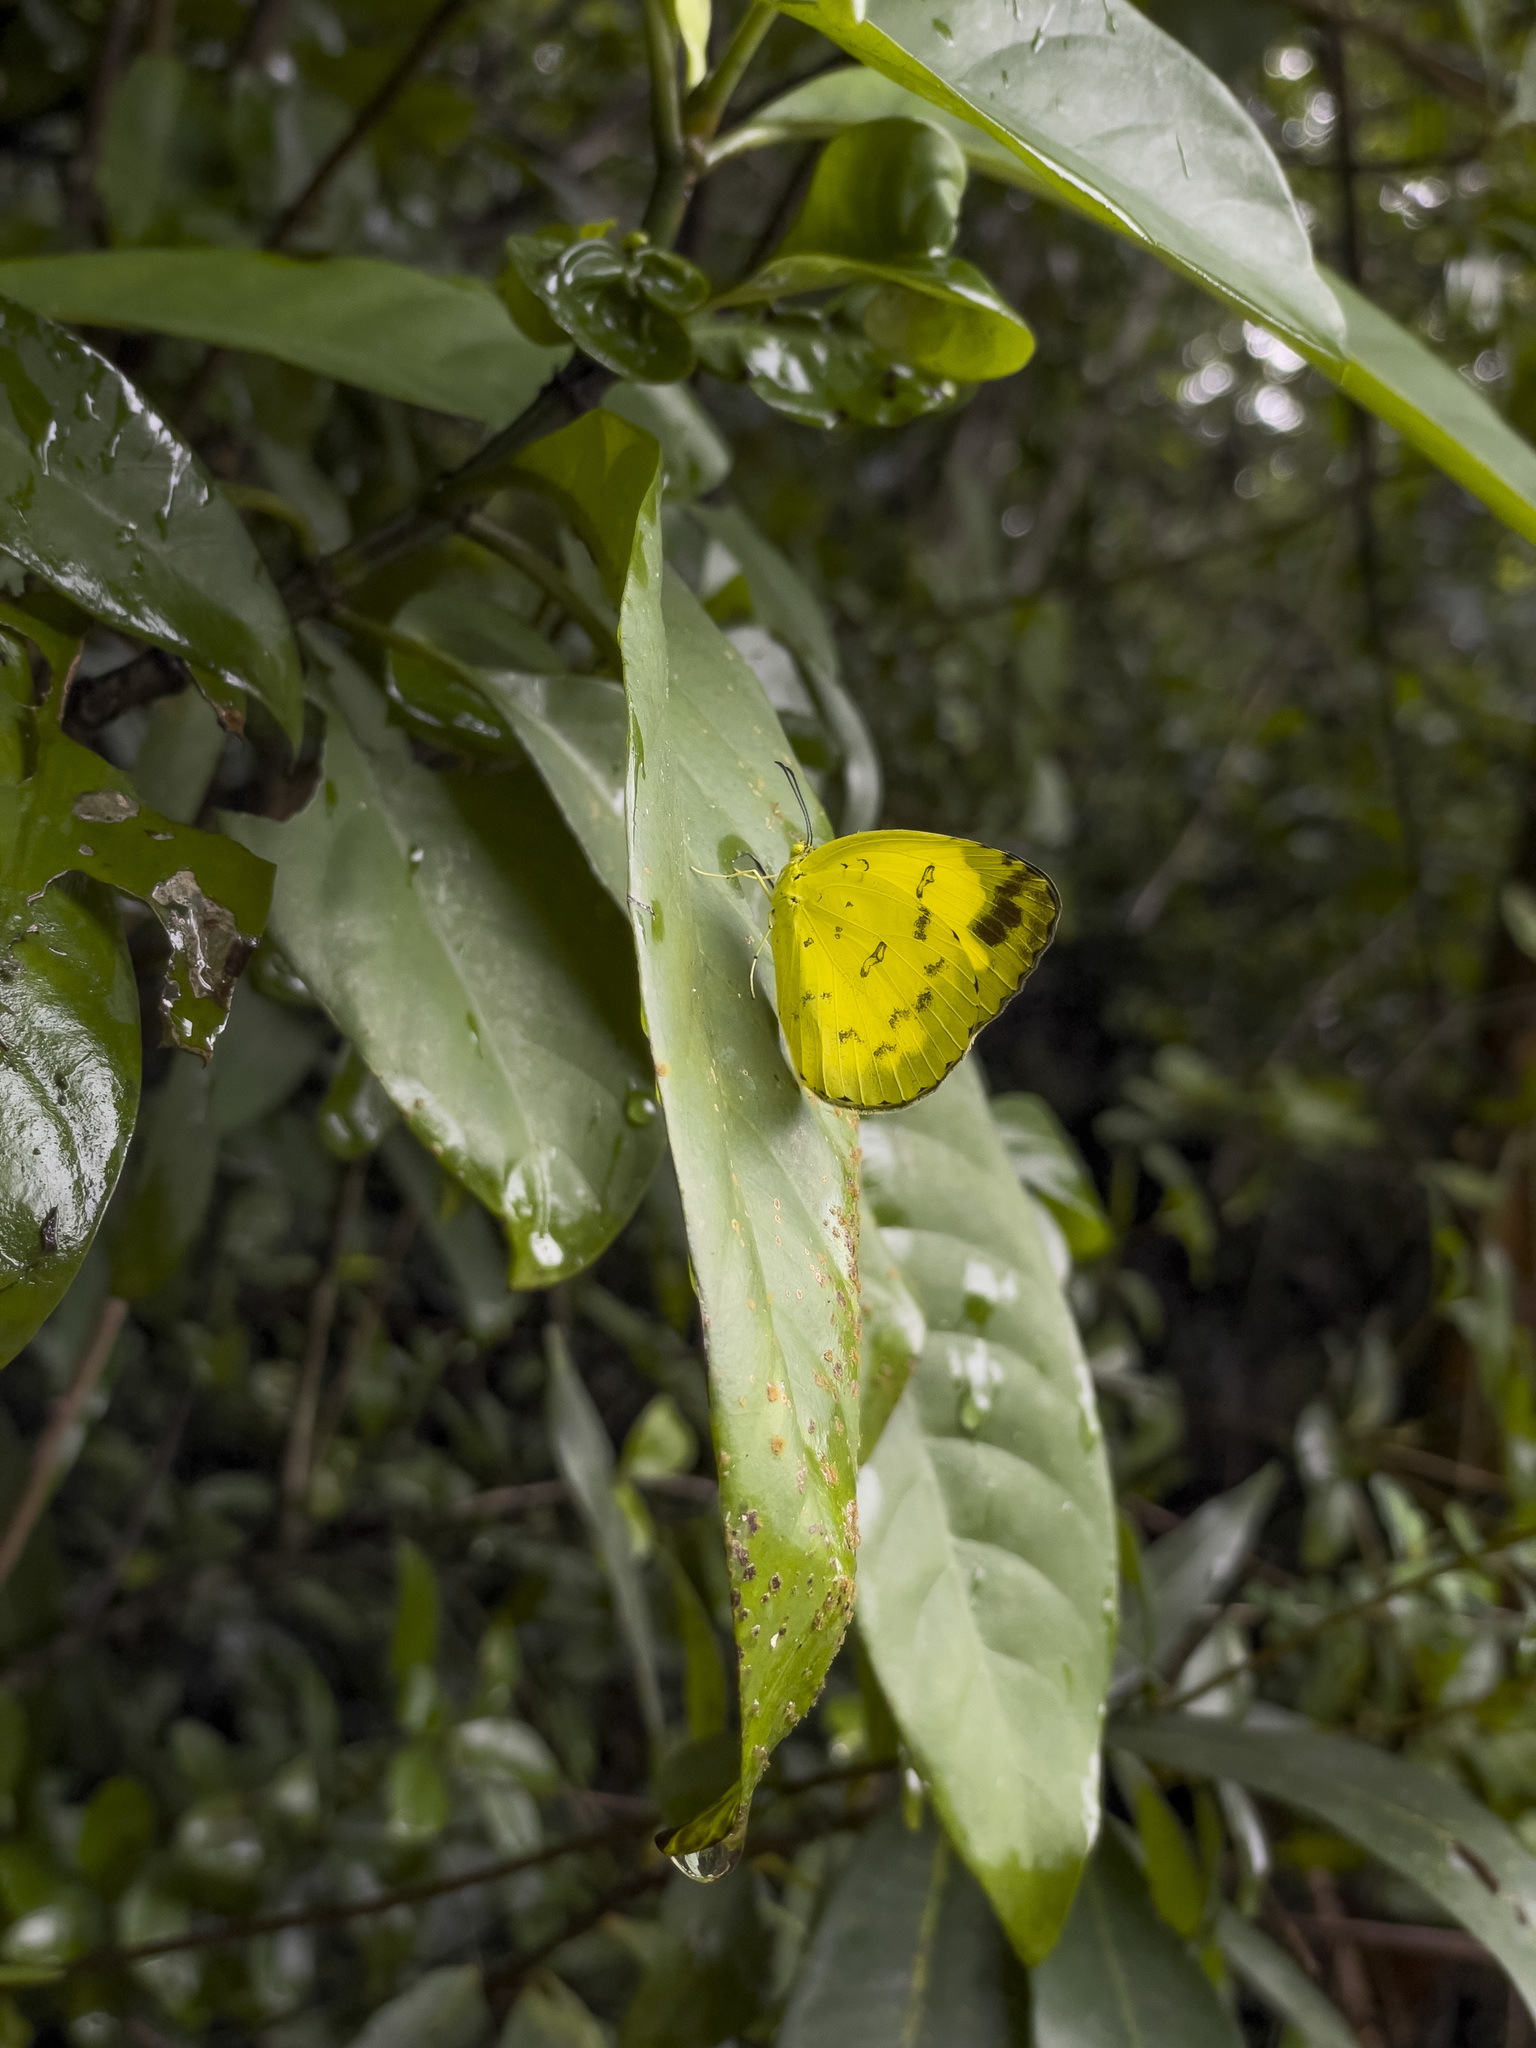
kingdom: Animalia
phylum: Arthropoda
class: Insecta
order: Lepidoptera
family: Pieridae
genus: Eurema
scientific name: Eurema hecabe
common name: Pale grass yellow
